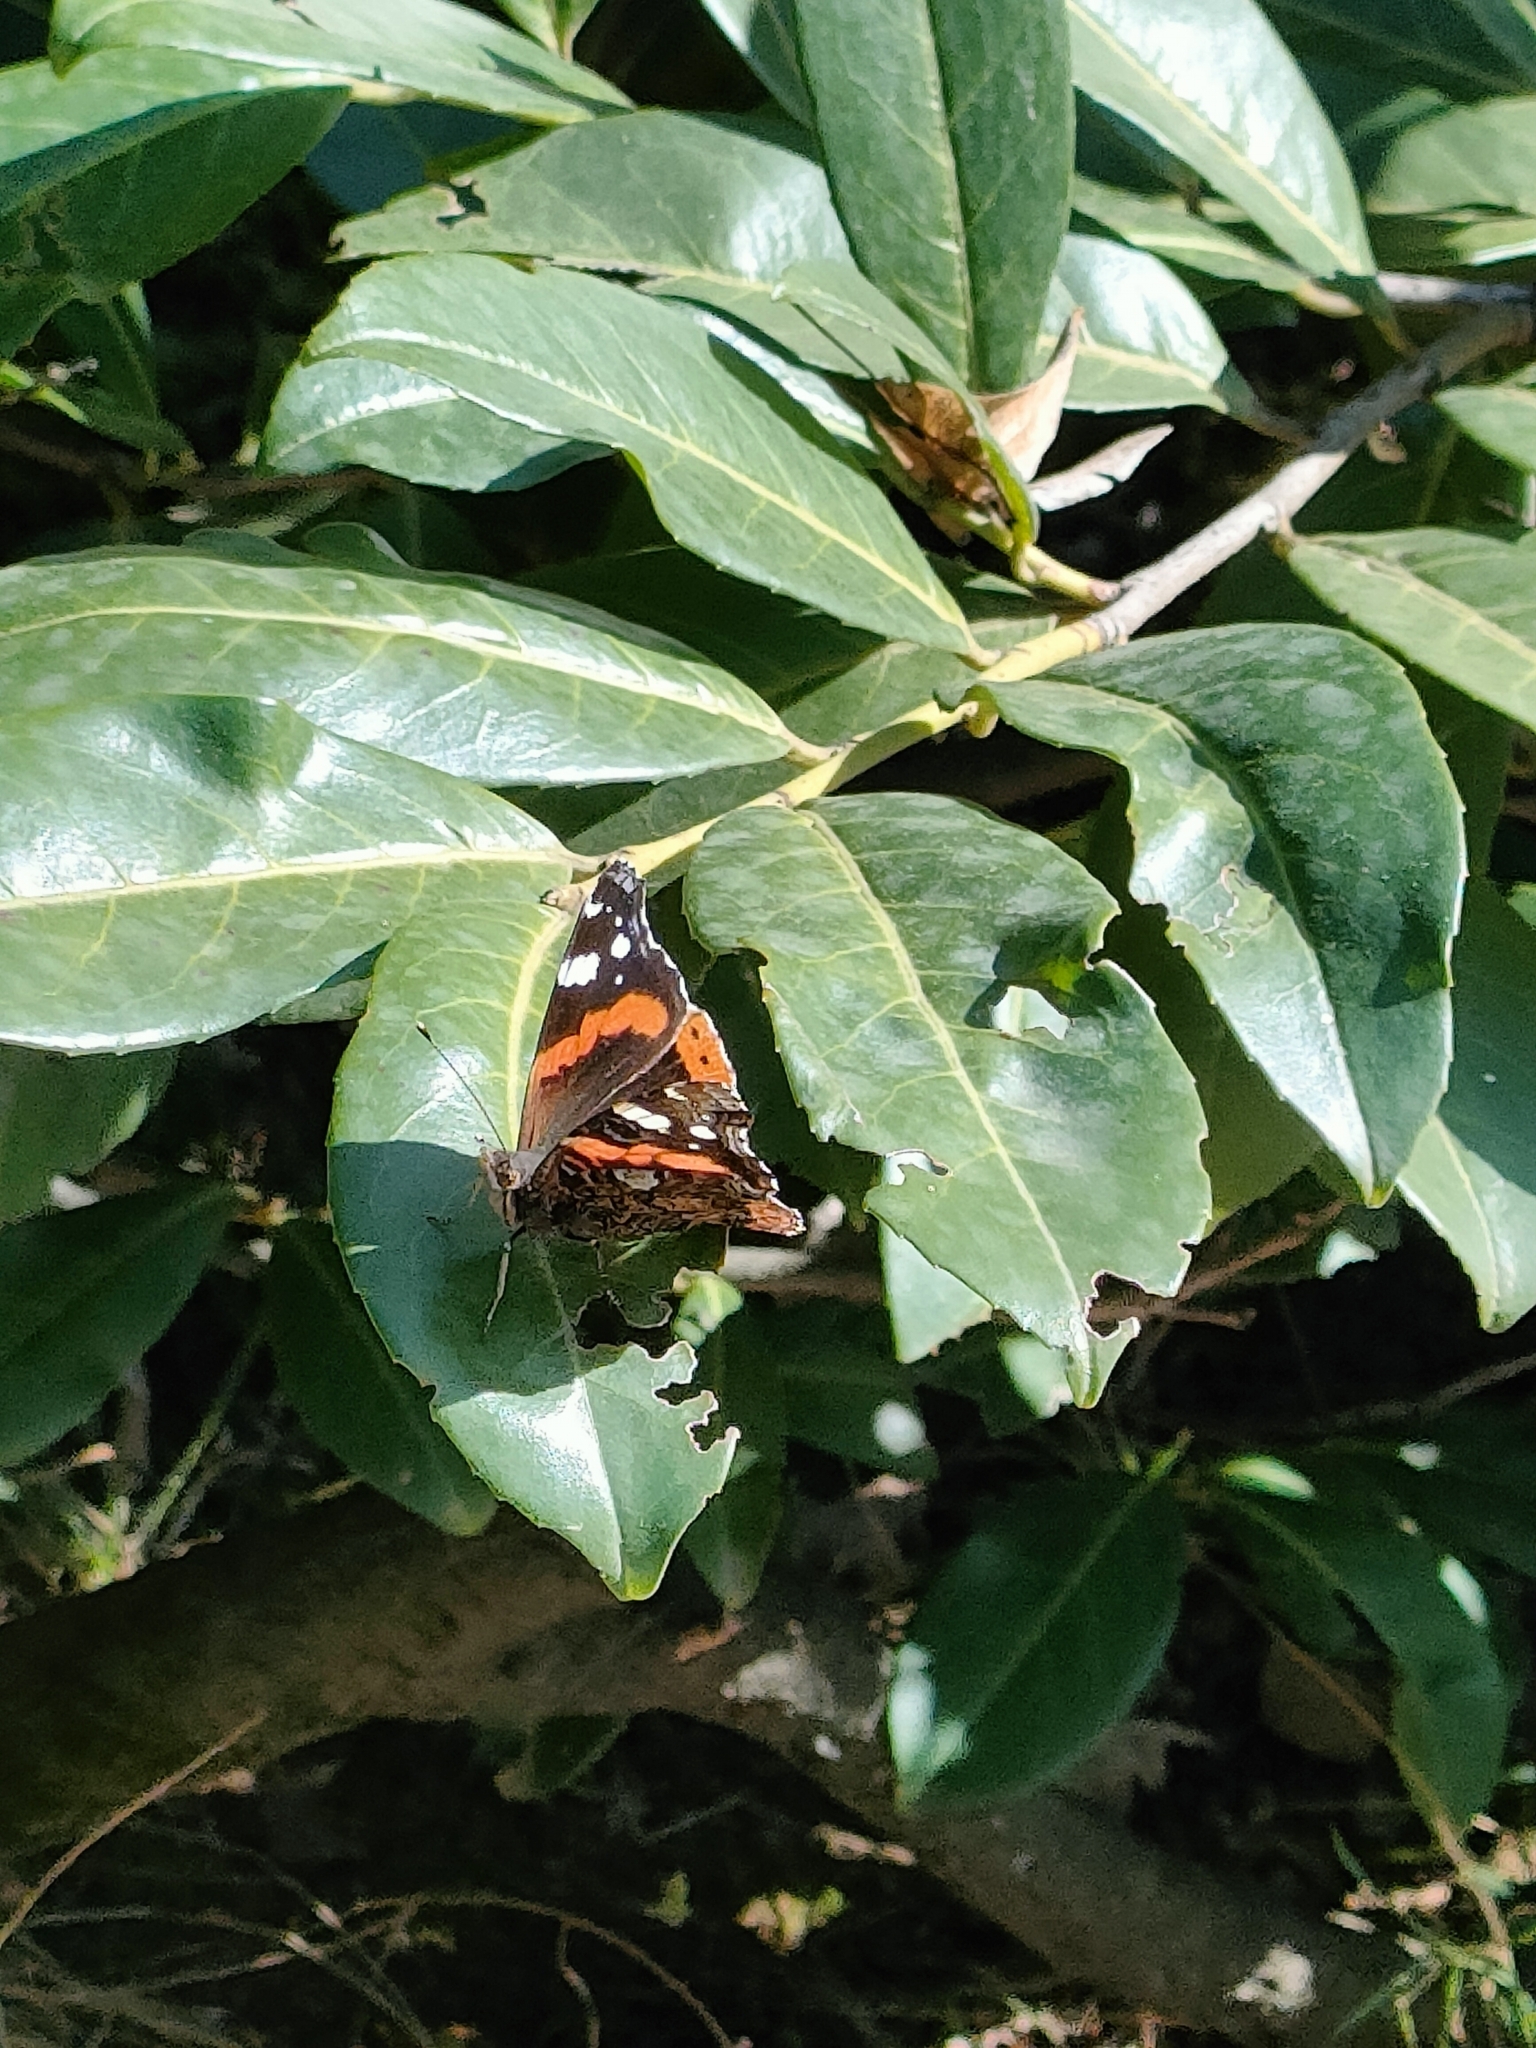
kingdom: Animalia
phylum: Arthropoda
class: Insecta
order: Lepidoptera
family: Nymphalidae
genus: Vanessa
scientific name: Vanessa atalanta
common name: Red admiral
